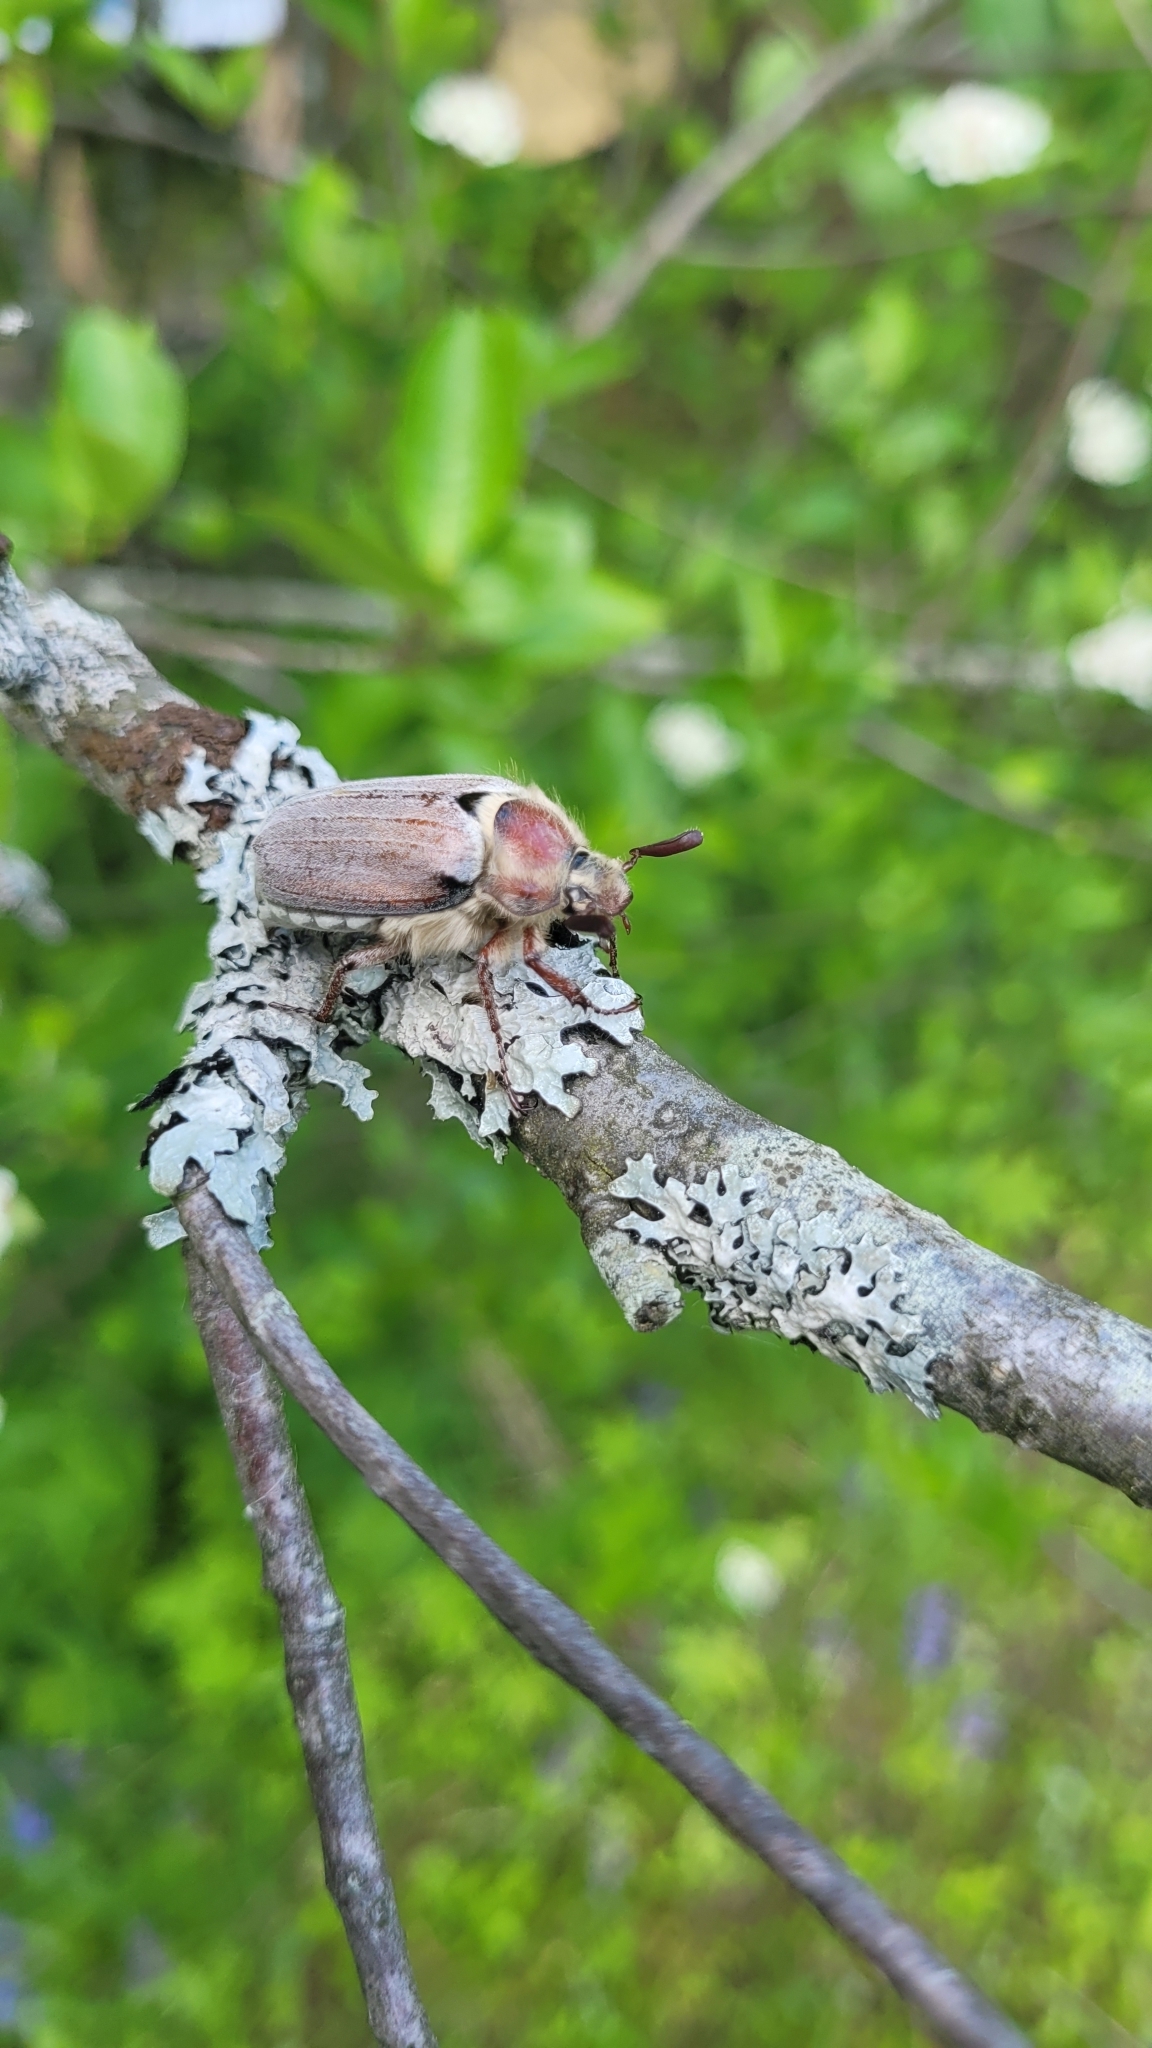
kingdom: Animalia
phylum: Arthropoda
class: Insecta
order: Coleoptera
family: Scarabaeidae
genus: Melolontha
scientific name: Melolontha hippocastani
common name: Chestnut cockchafer
